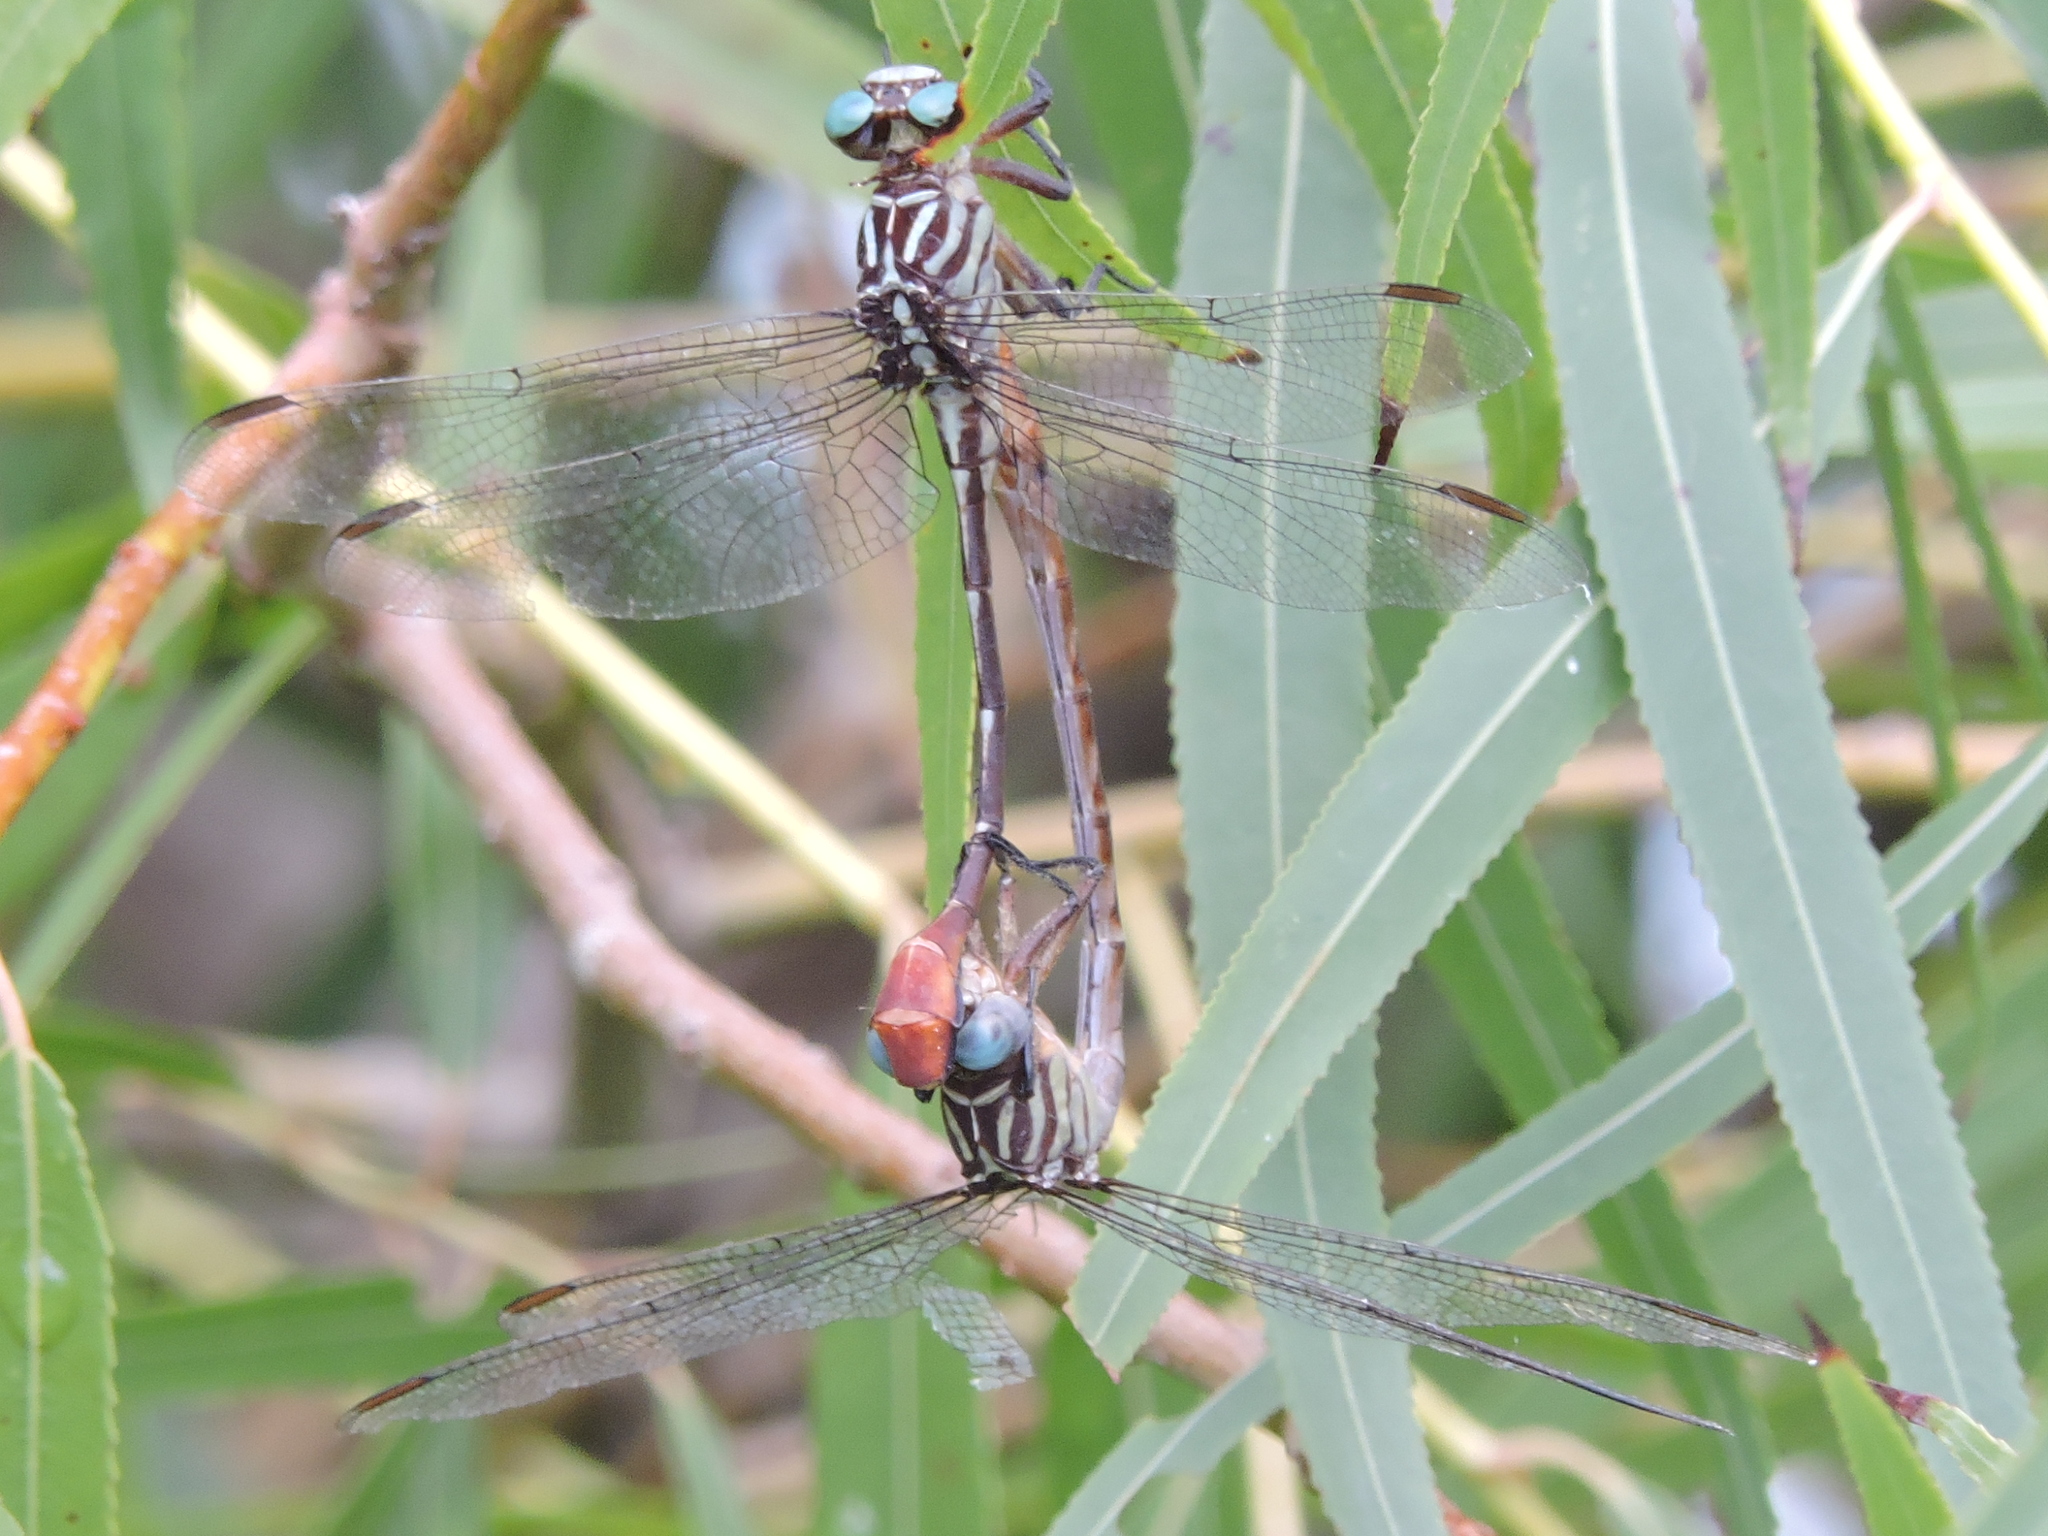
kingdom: Animalia
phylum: Arthropoda
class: Insecta
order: Odonata
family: Gomphidae
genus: Stylurus
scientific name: Stylurus plagiatus
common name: Russet-tipped clubtail
